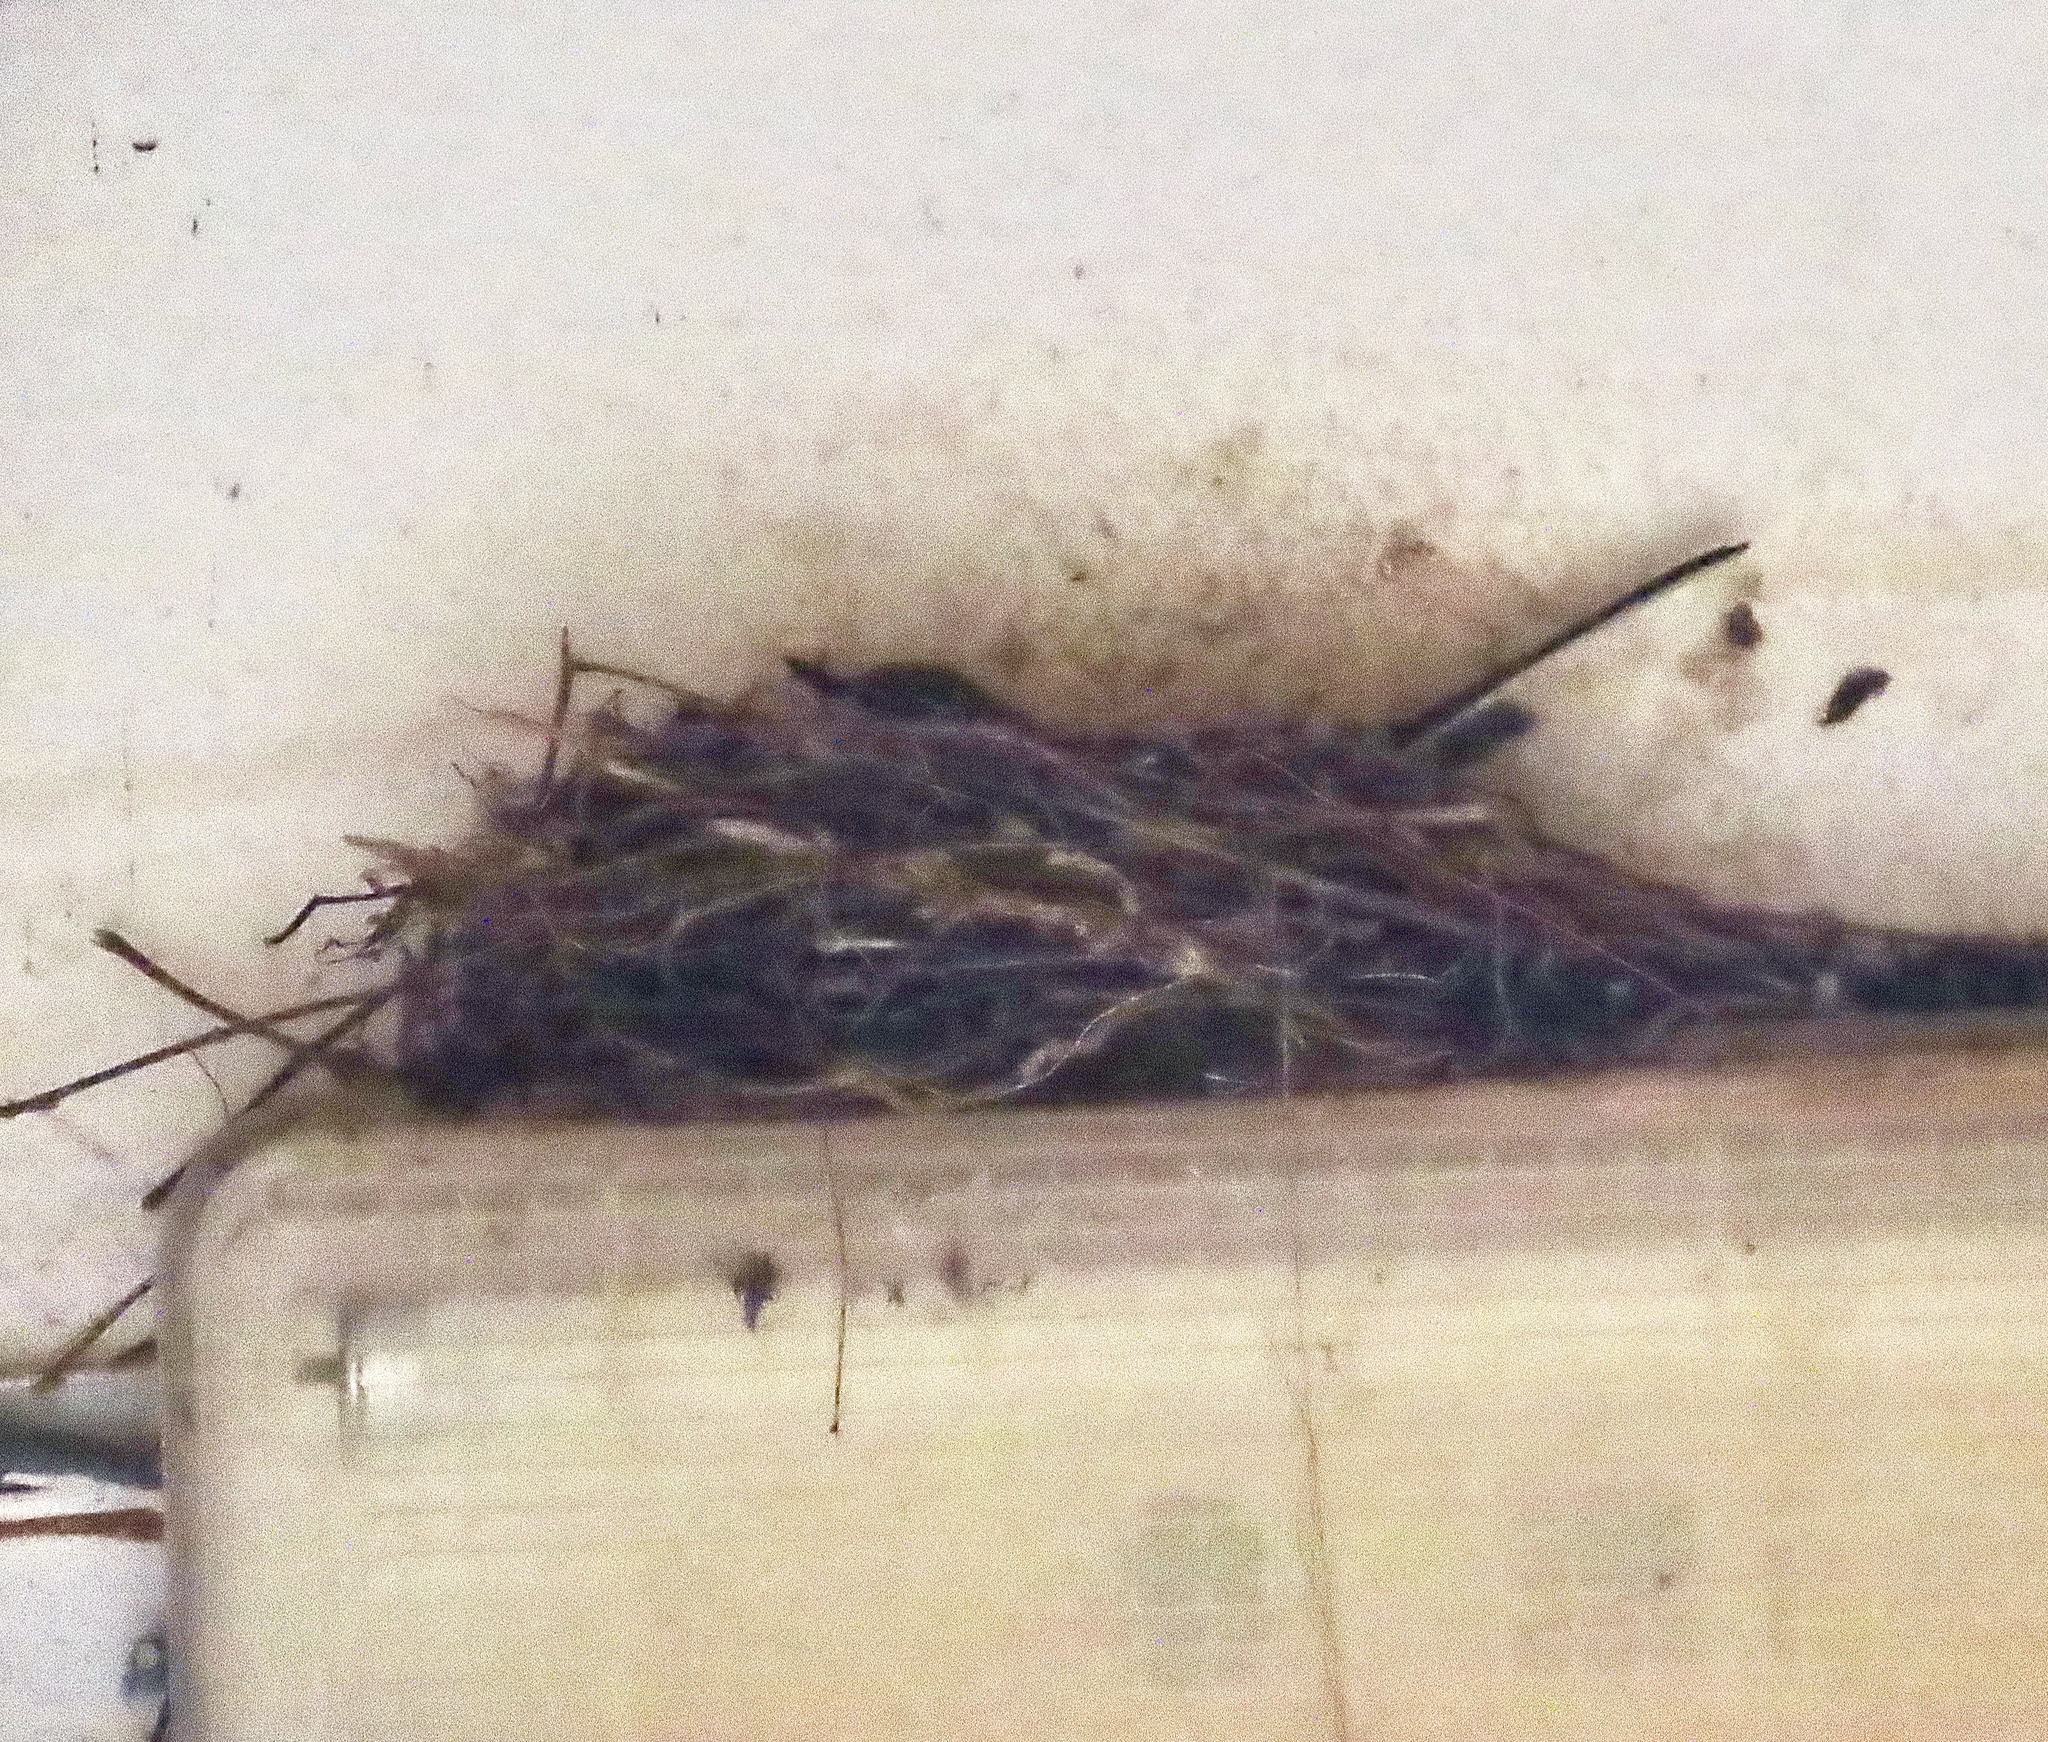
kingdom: Animalia
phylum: Chordata
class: Aves
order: Passeriformes
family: Motacillidae
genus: Motacilla
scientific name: Motacilla flaviventris
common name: Madagascar wagtail
